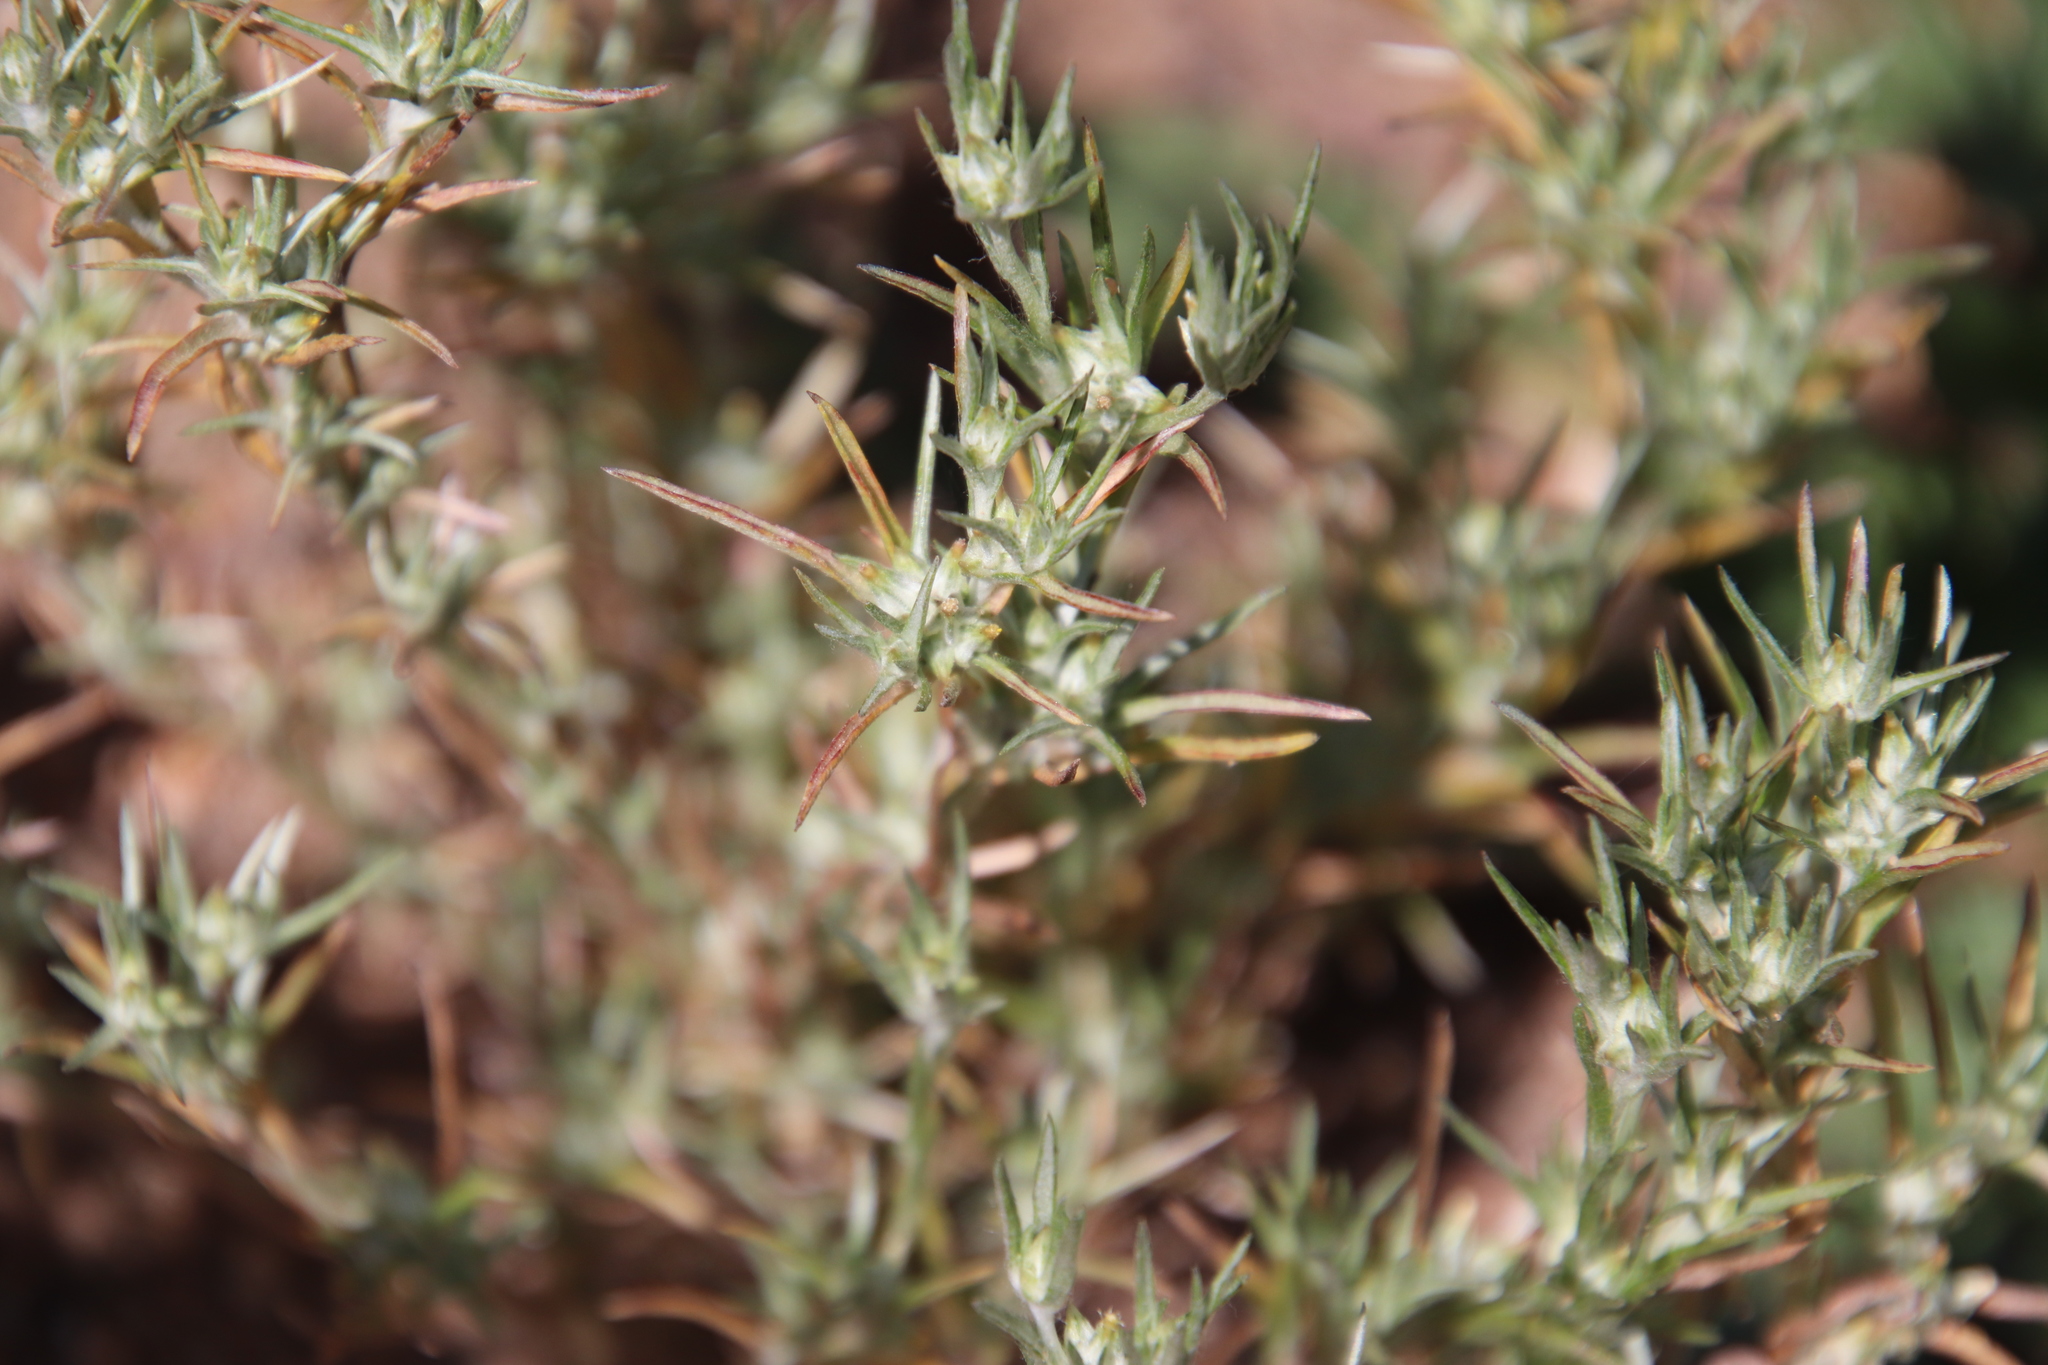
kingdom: Plantae
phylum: Tracheophyta
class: Magnoliopsida
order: Asterales
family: Asteraceae
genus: Logfia
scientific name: Logfia gallica
